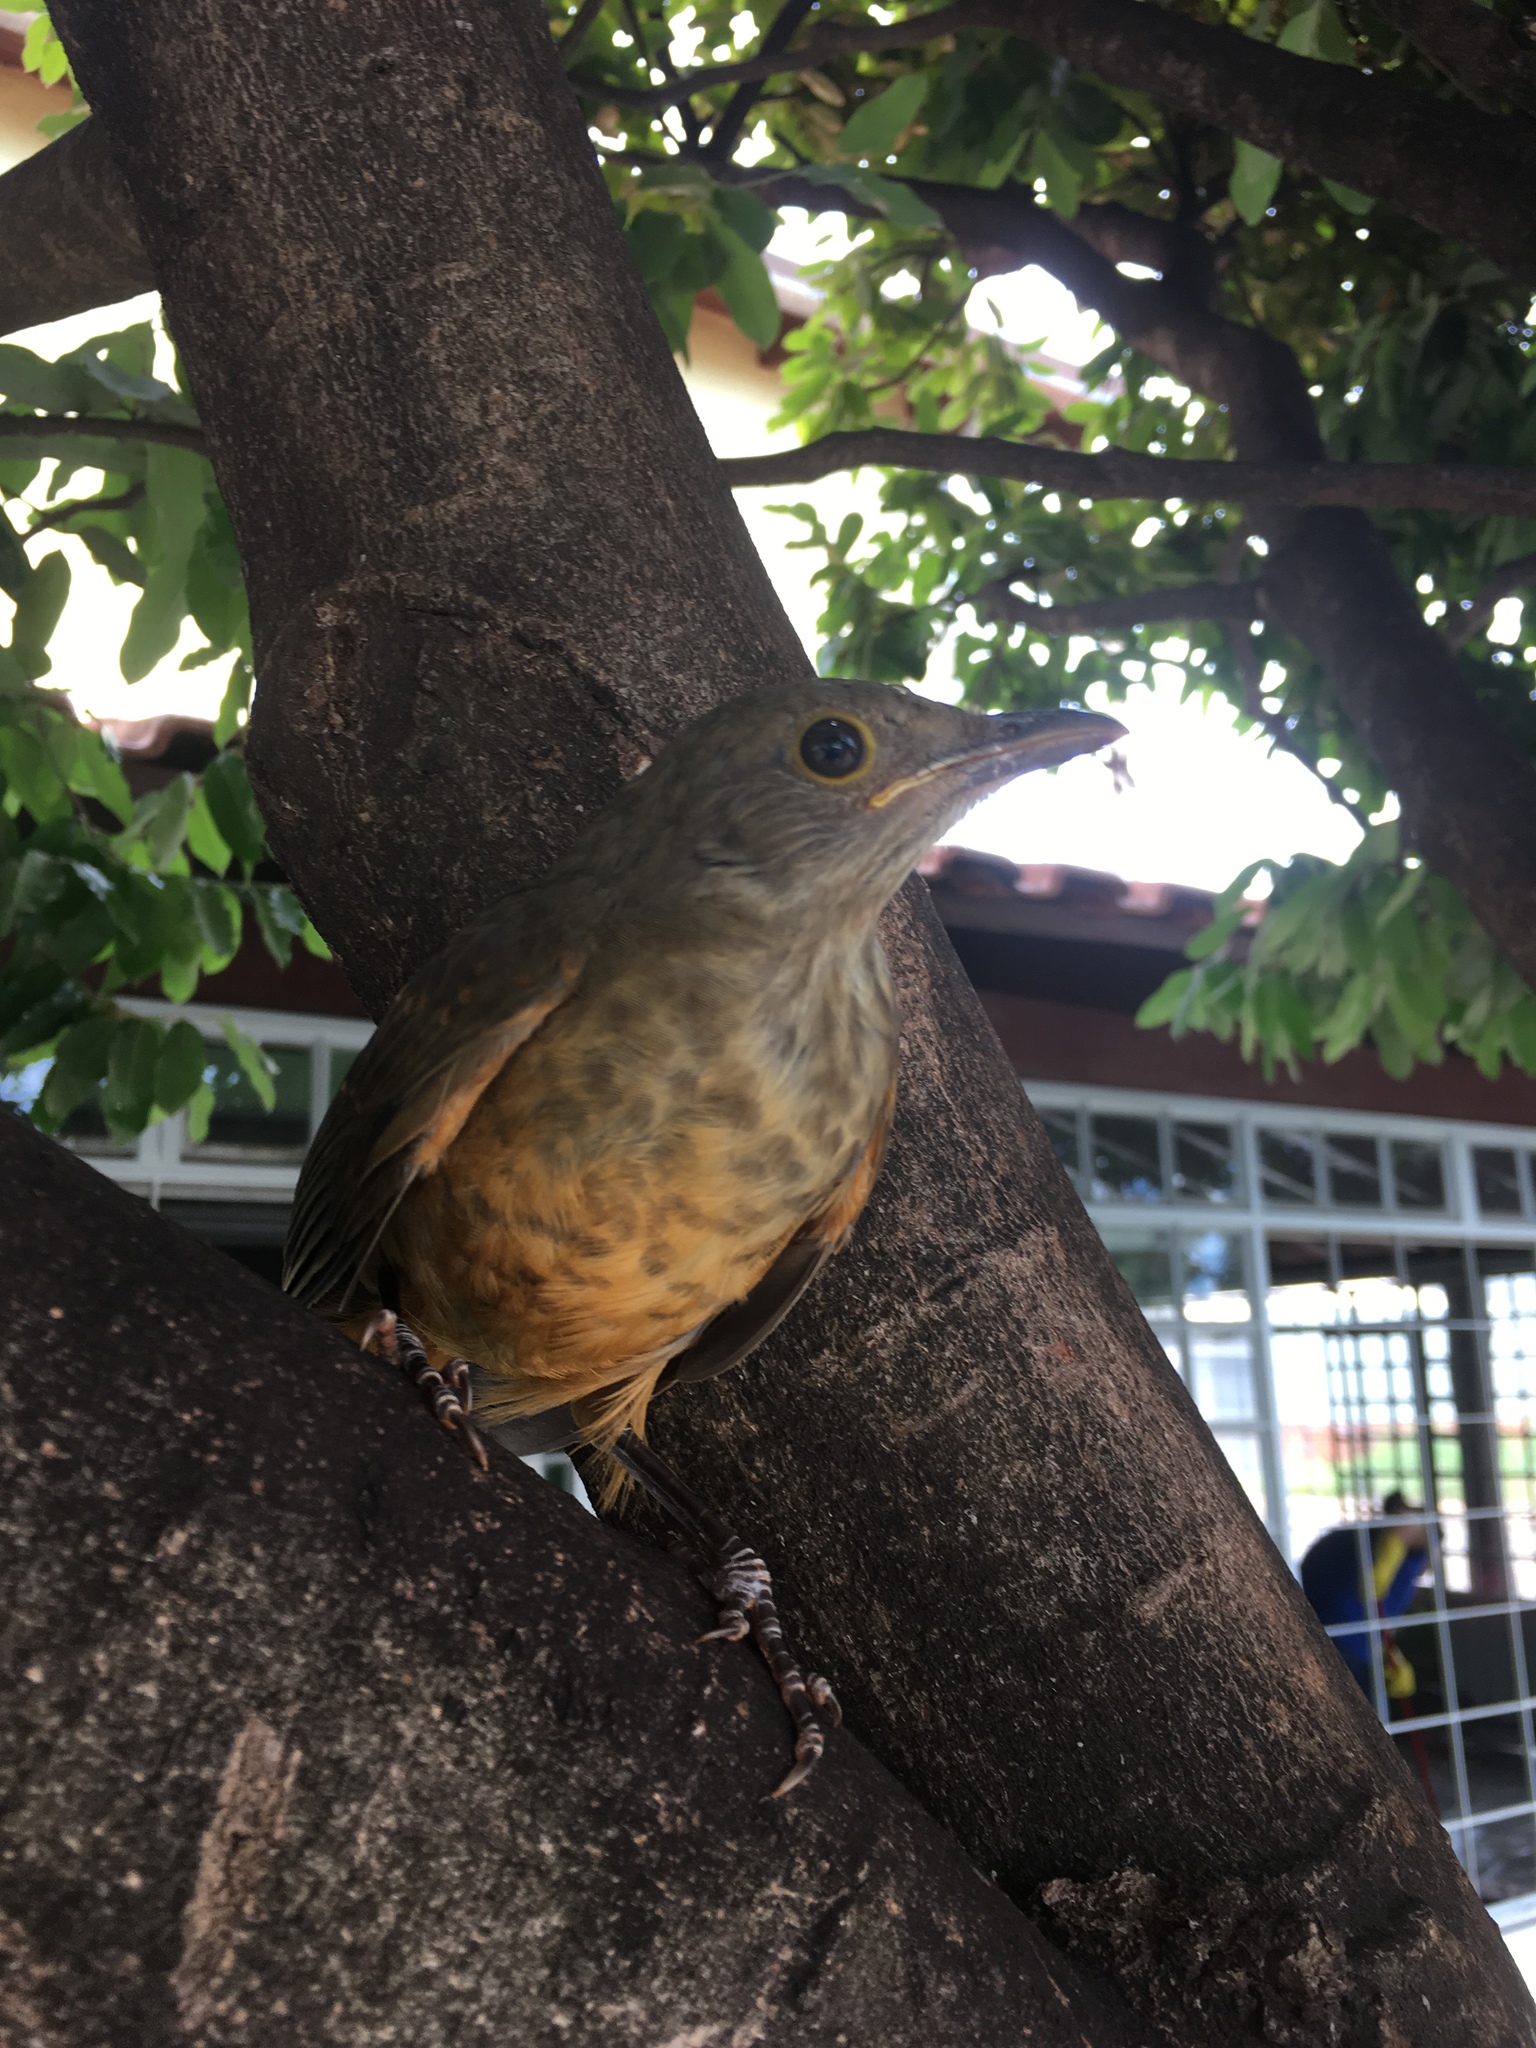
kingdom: Animalia
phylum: Chordata
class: Aves
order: Passeriformes
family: Turdidae
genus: Turdus
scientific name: Turdus rufiventris
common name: Rufous-bellied thrush
